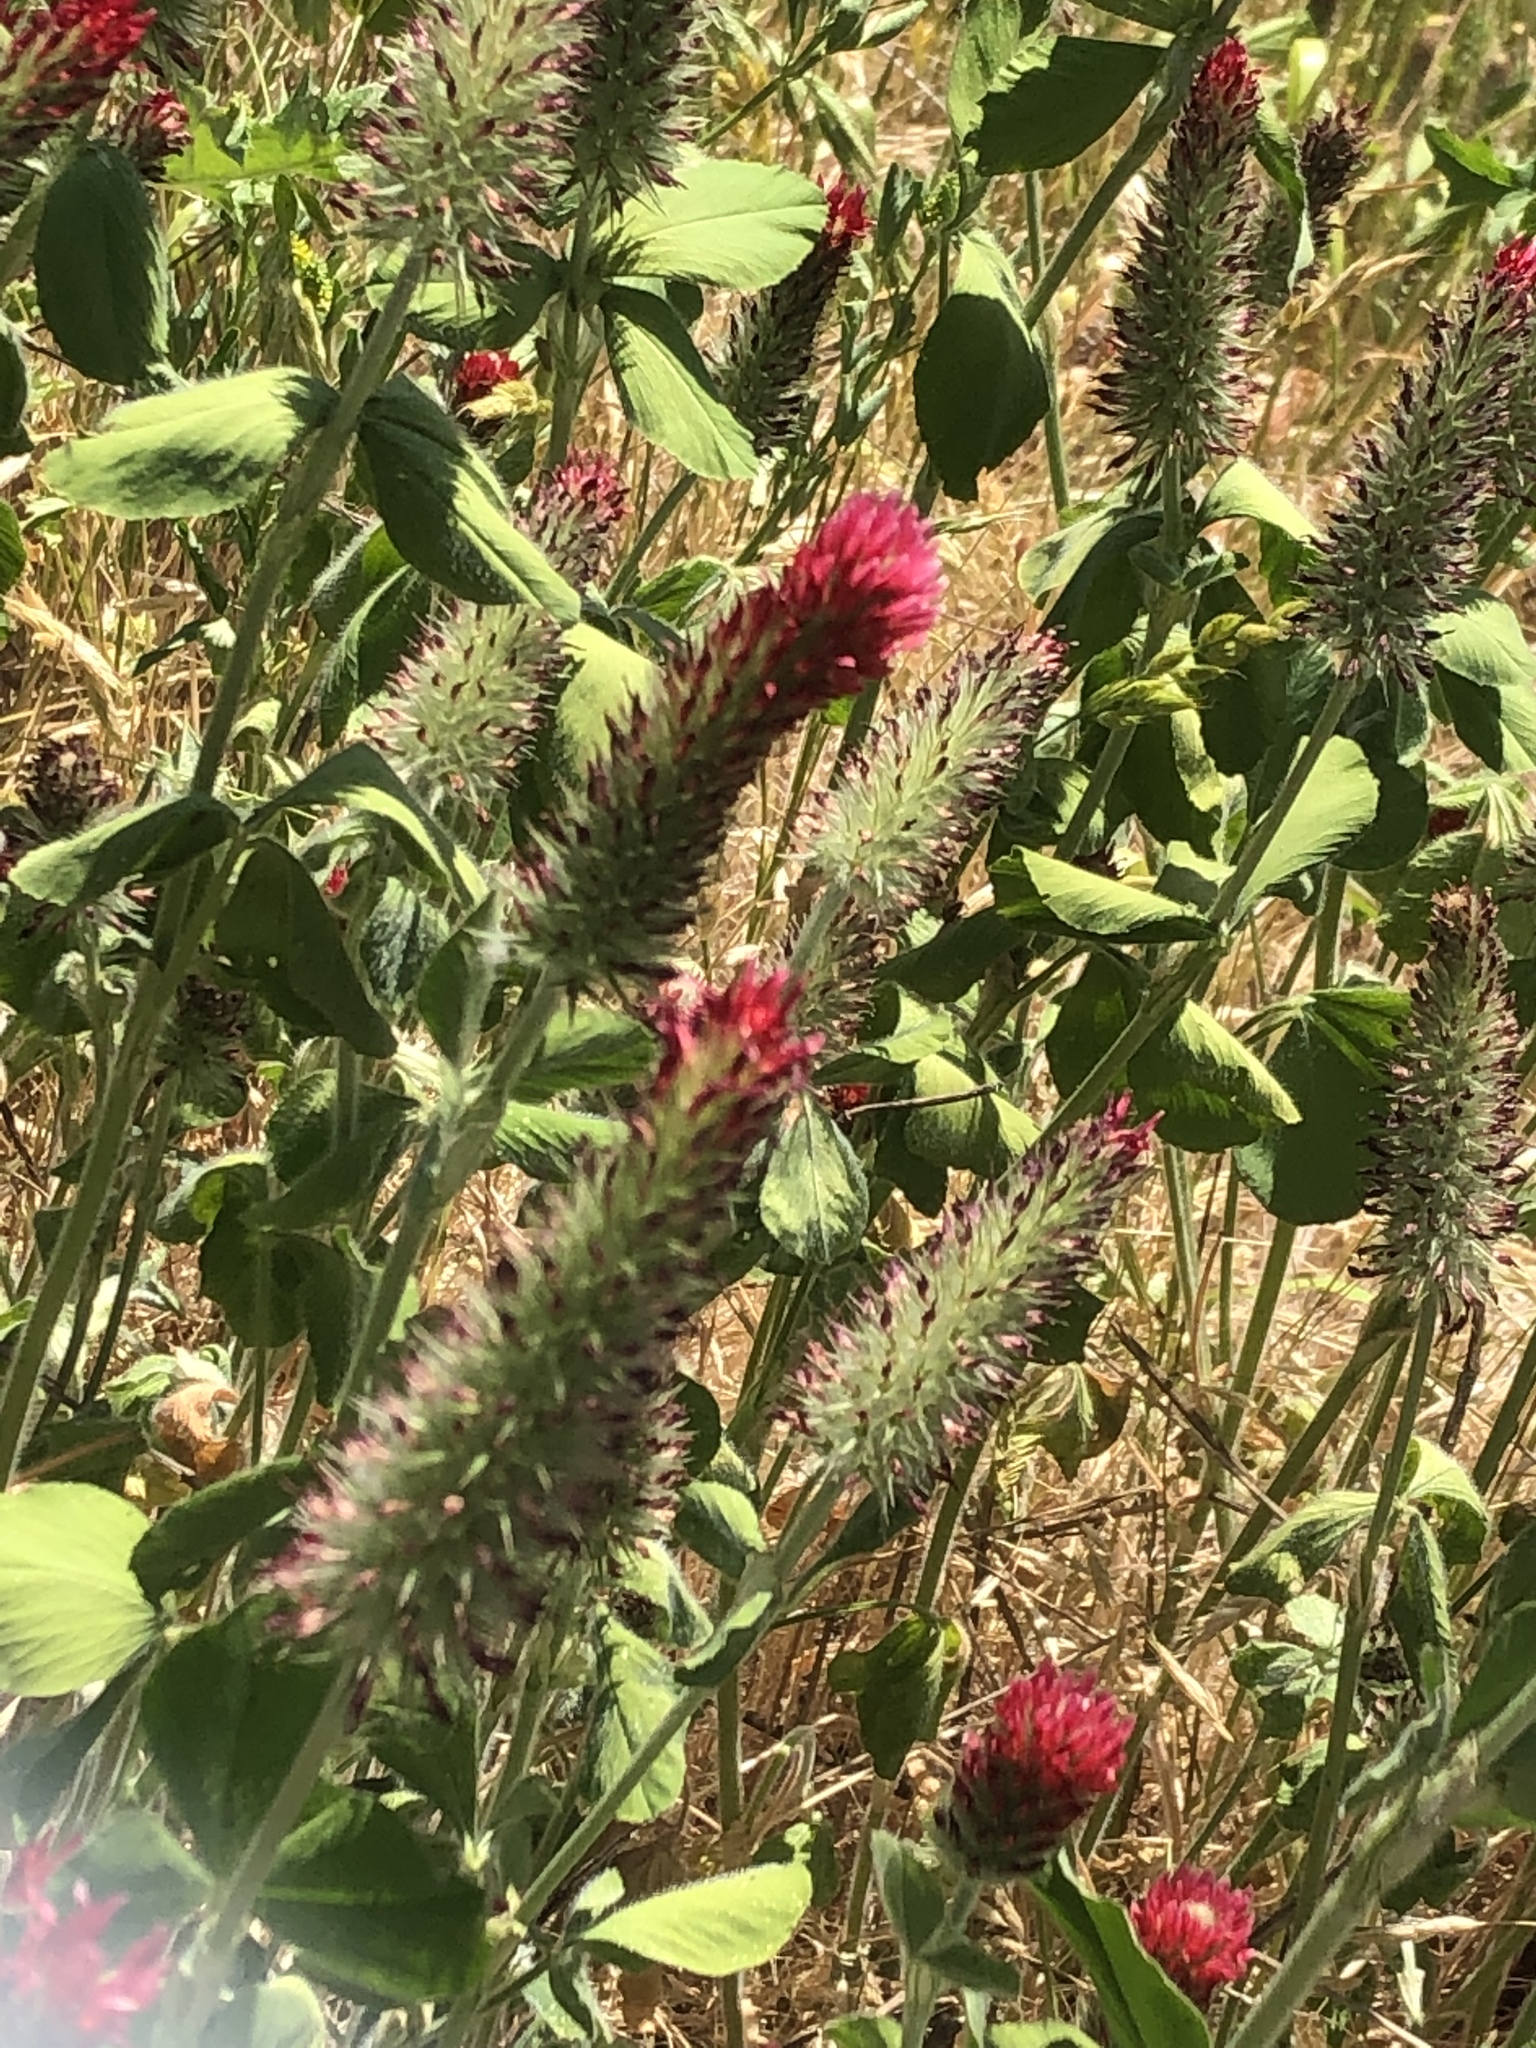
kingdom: Plantae
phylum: Tracheophyta
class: Magnoliopsida
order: Fabales
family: Fabaceae
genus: Trifolium
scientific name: Trifolium incarnatum
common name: Crimson clover
